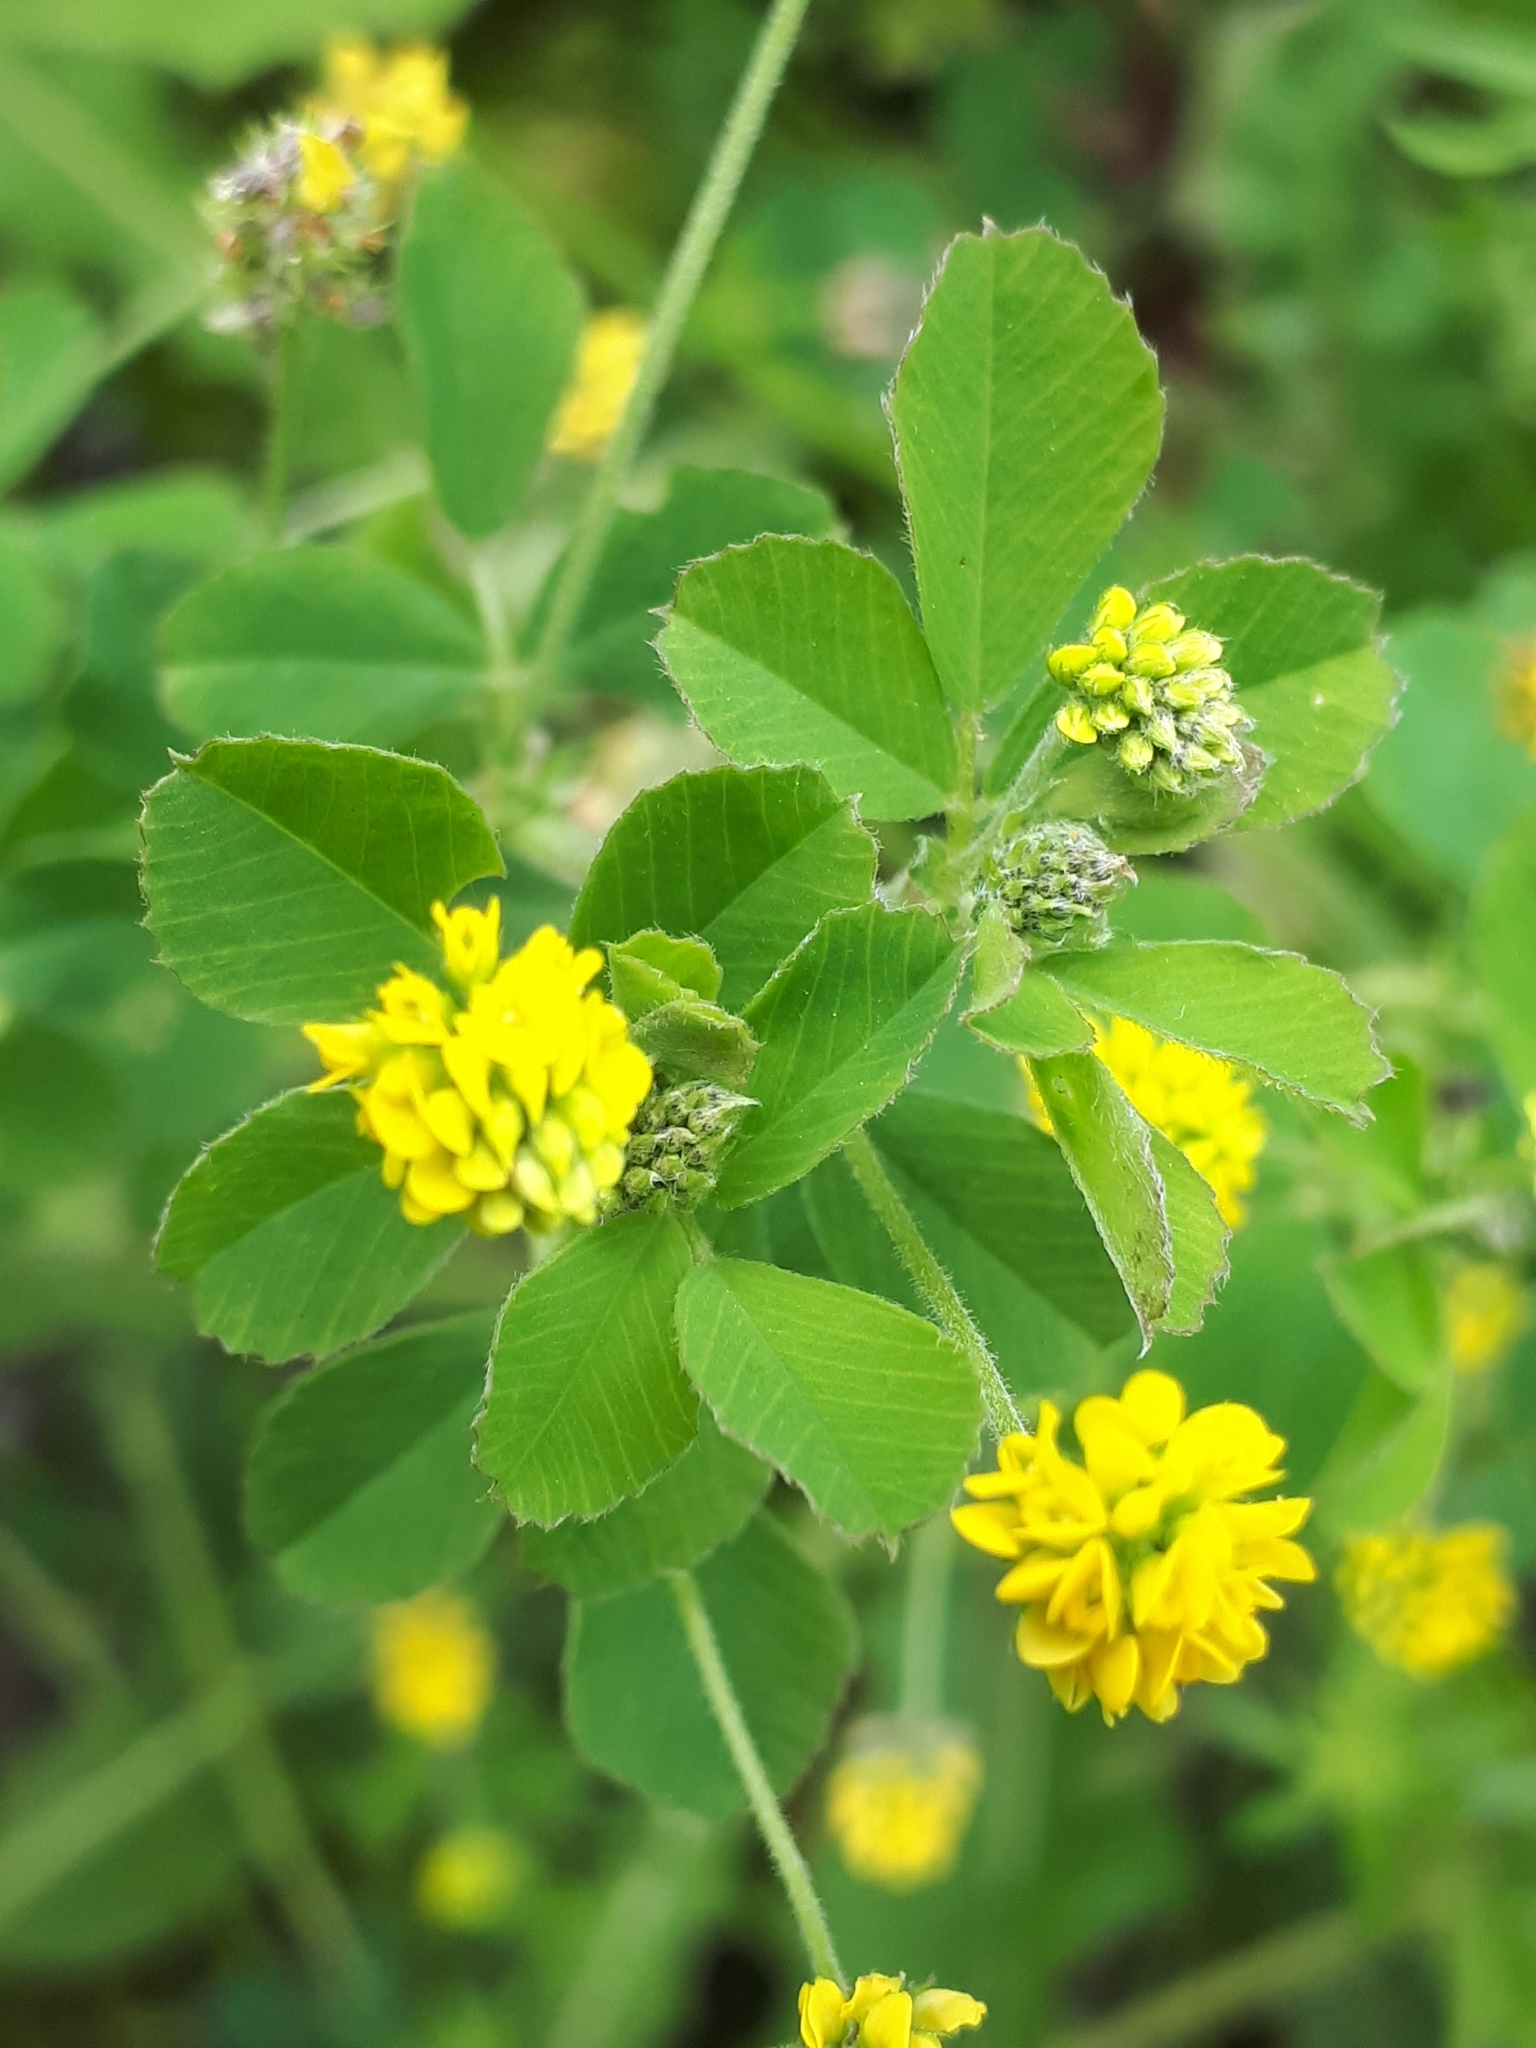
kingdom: Plantae
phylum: Tracheophyta
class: Magnoliopsida
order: Fabales
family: Fabaceae
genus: Medicago
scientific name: Medicago lupulina
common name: Black medick
